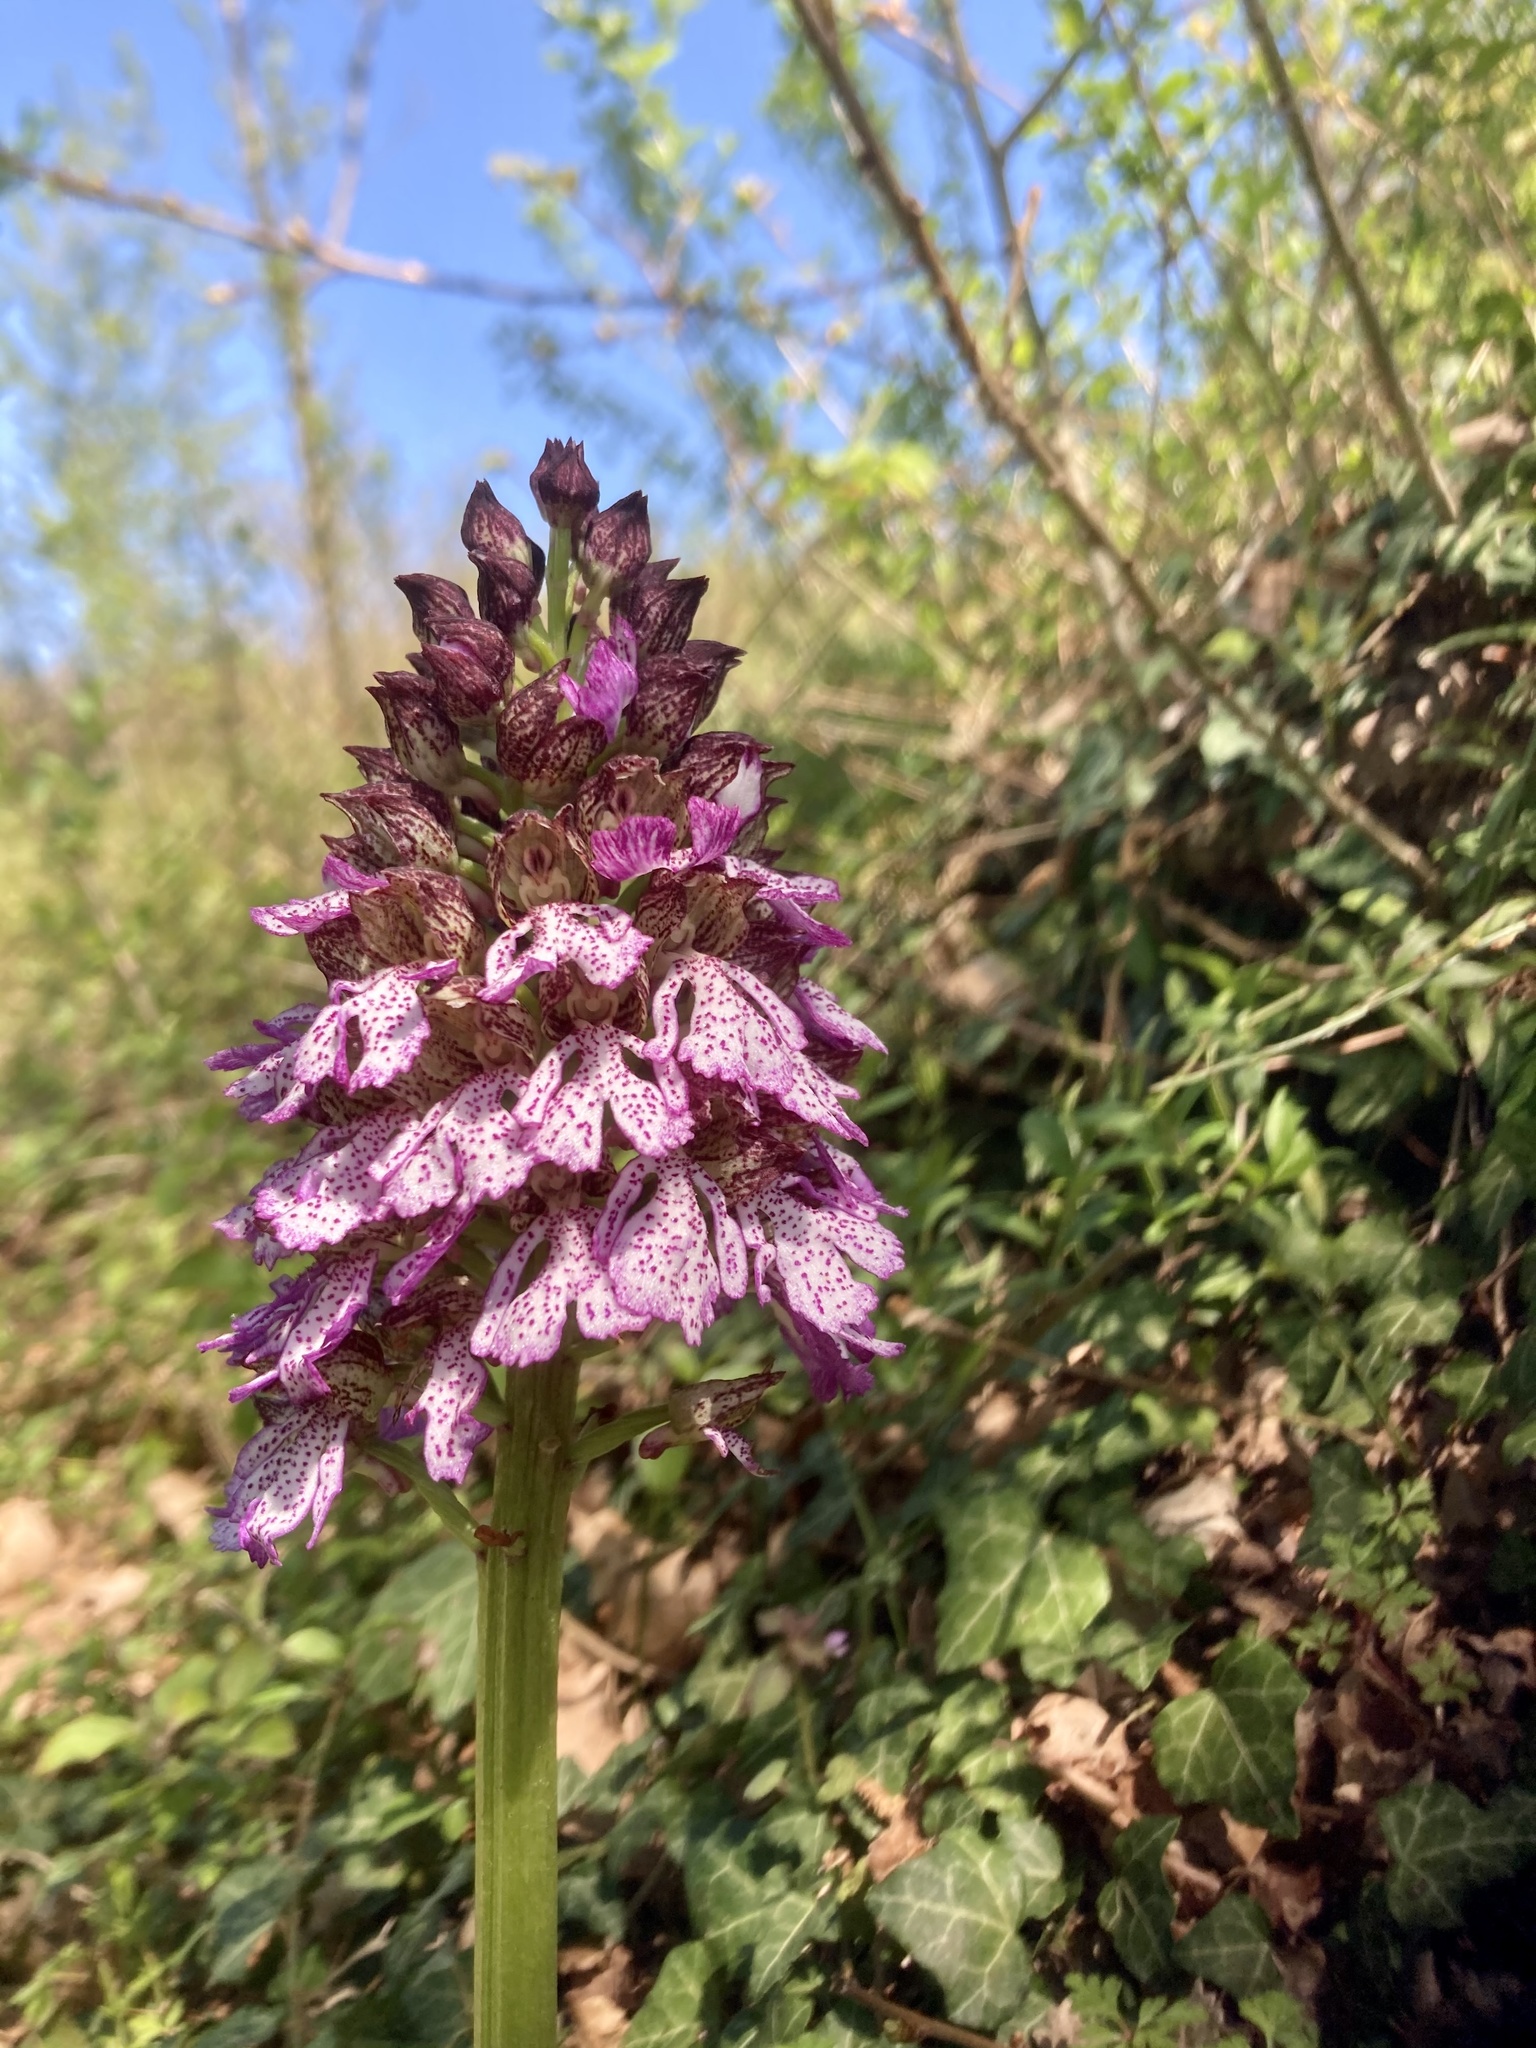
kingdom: Plantae
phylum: Tracheophyta
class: Liliopsida
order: Asparagales
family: Orchidaceae
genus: Orchis
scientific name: Orchis purpurea
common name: Lady orchid
